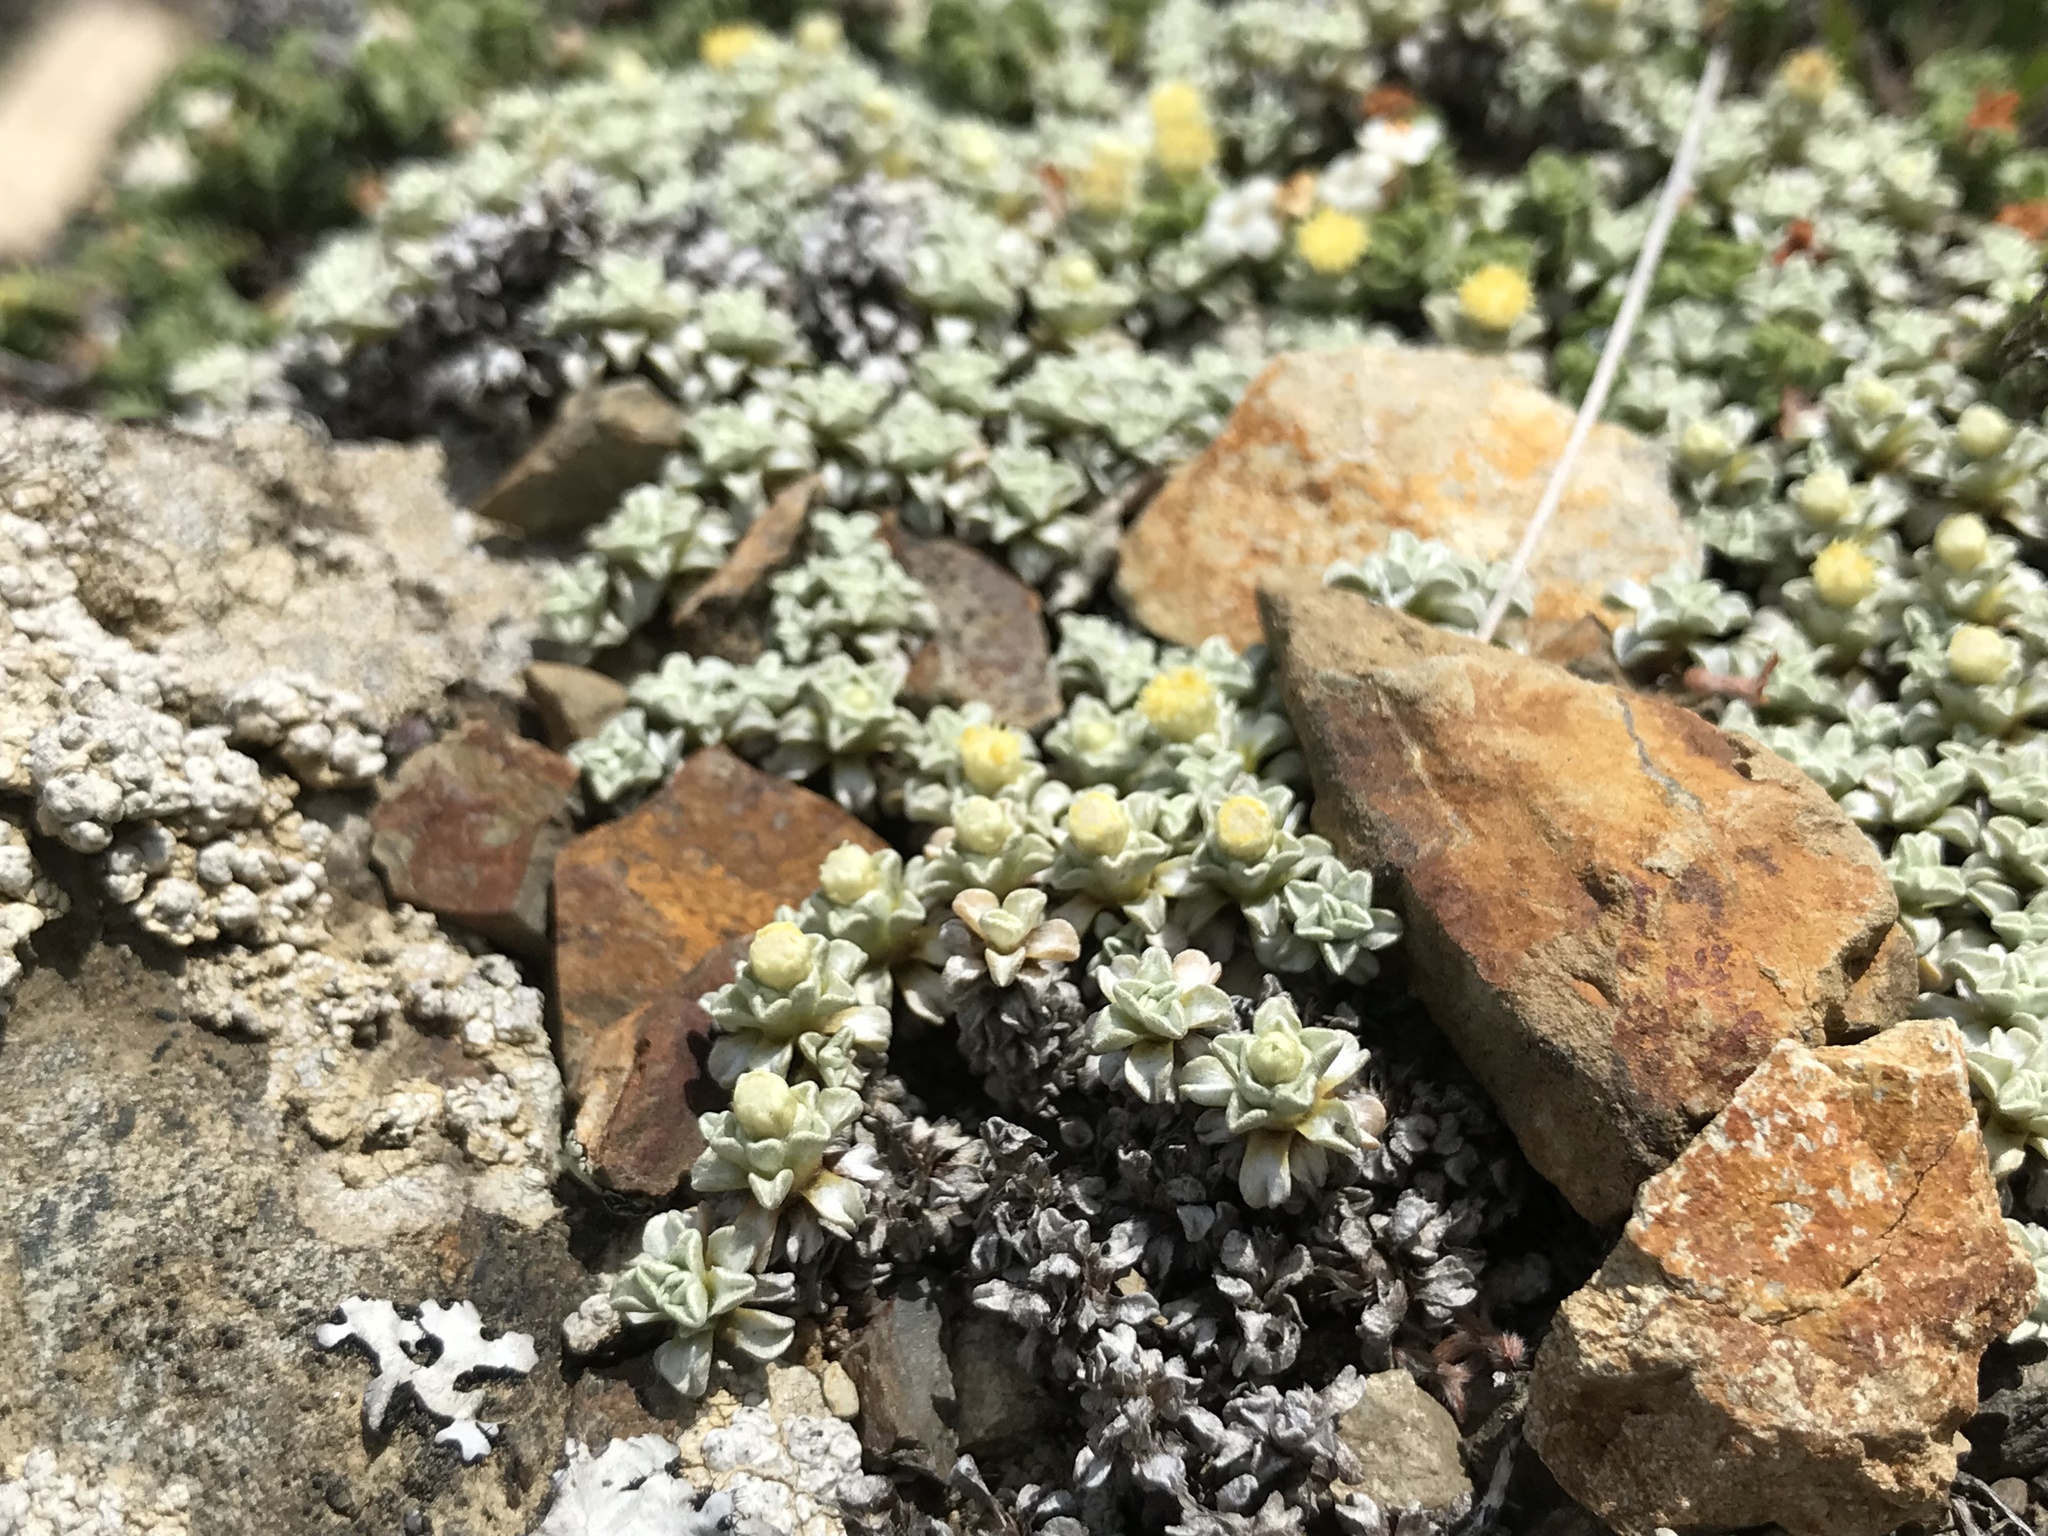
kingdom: Plantae
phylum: Tracheophyta
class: Magnoliopsida
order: Asterales
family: Asteraceae
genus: Raoulia
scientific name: Raoulia hookeri
